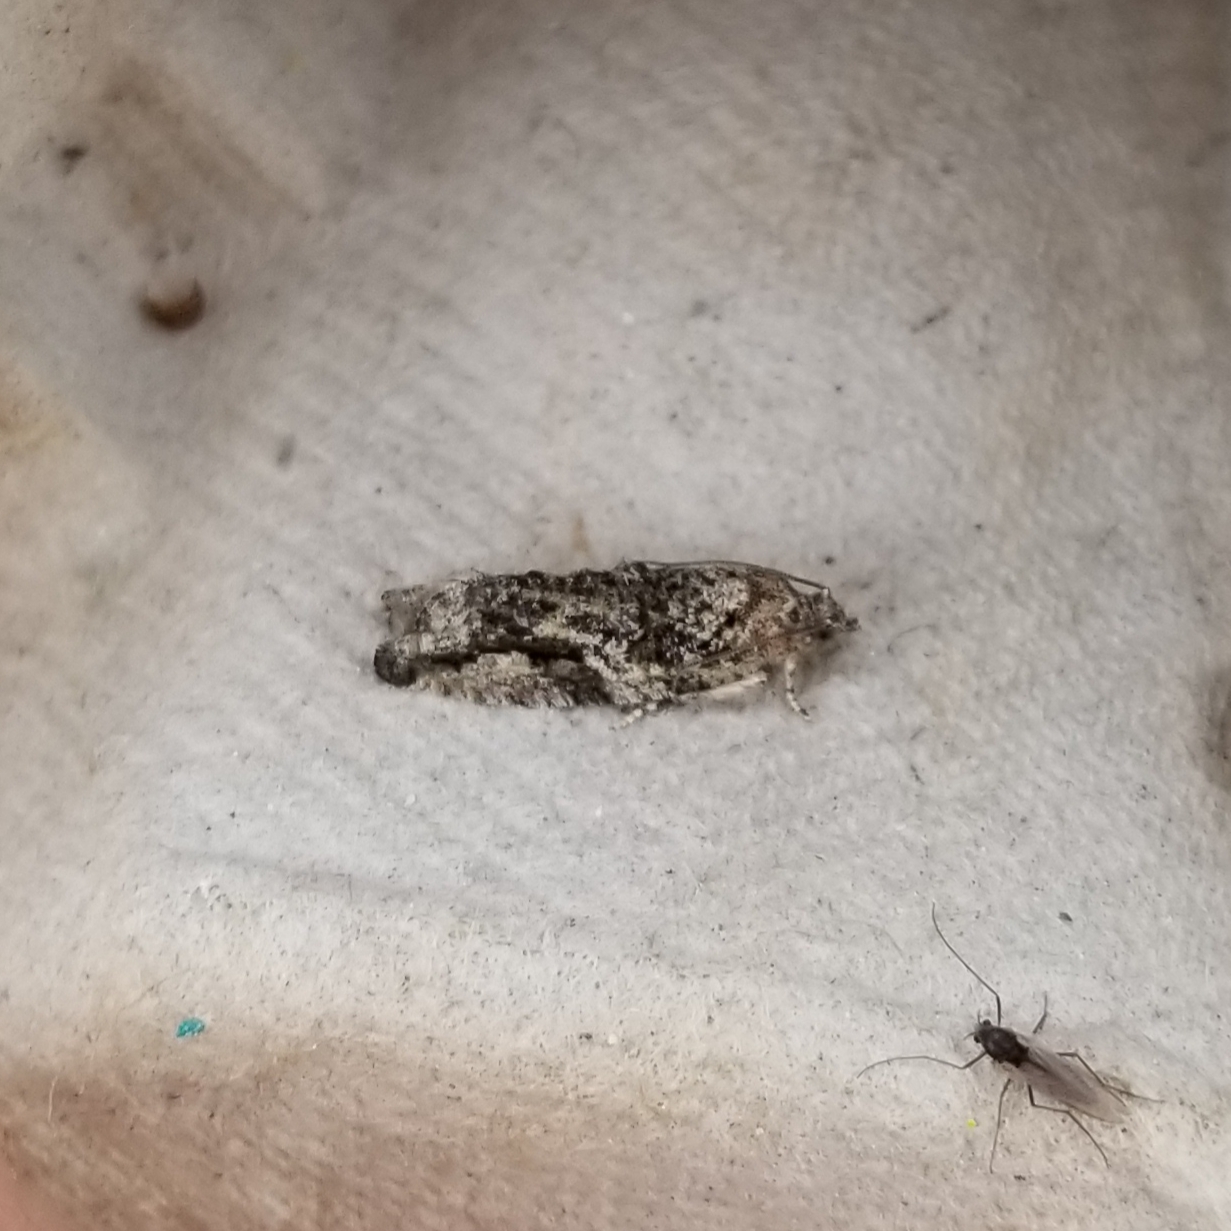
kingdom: Animalia
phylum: Arthropoda
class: Insecta
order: Lepidoptera
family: Tortricidae
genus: Proteoteras
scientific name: Proteoteras aesculana
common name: Maple twig borer moth
